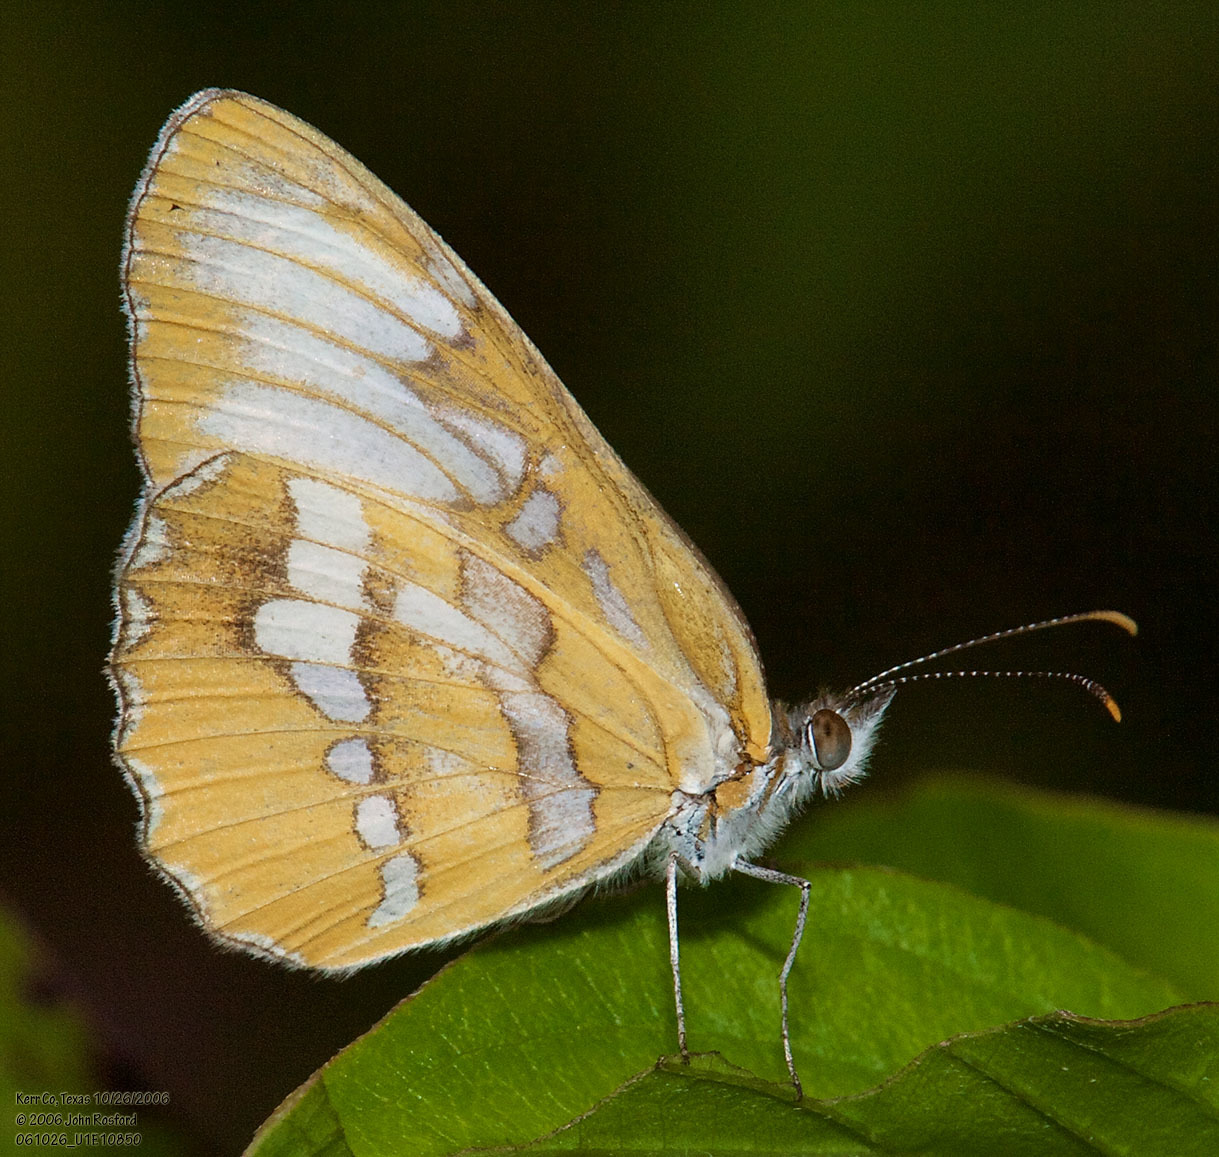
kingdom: Animalia
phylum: Arthropoda
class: Insecta
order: Lepidoptera
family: Nymphalidae
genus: Mestra
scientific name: Mestra amymone
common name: Common mestra
